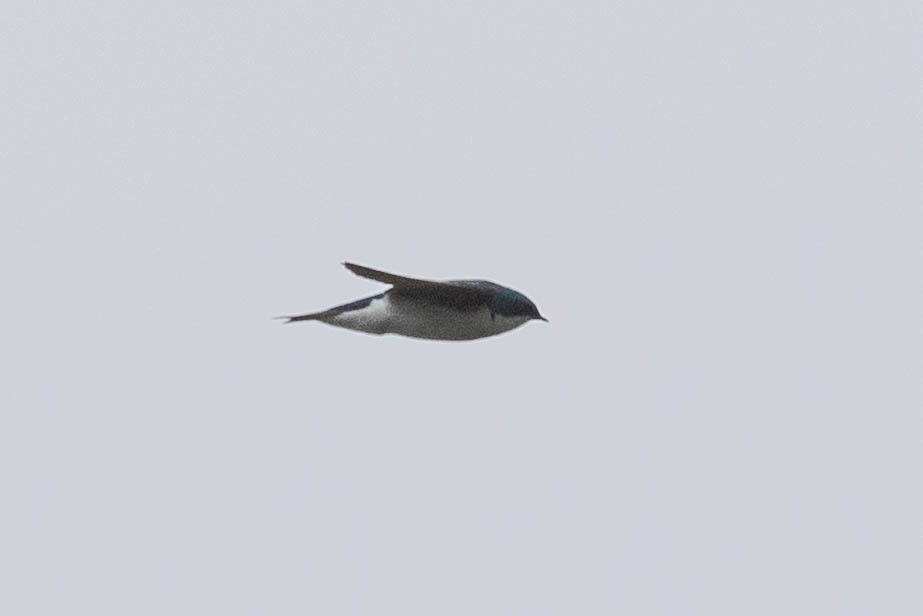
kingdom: Animalia
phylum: Chordata
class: Aves
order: Passeriformes
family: Hirundinidae
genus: Tachycineta
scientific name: Tachycineta bicolor
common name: Tree swallow
